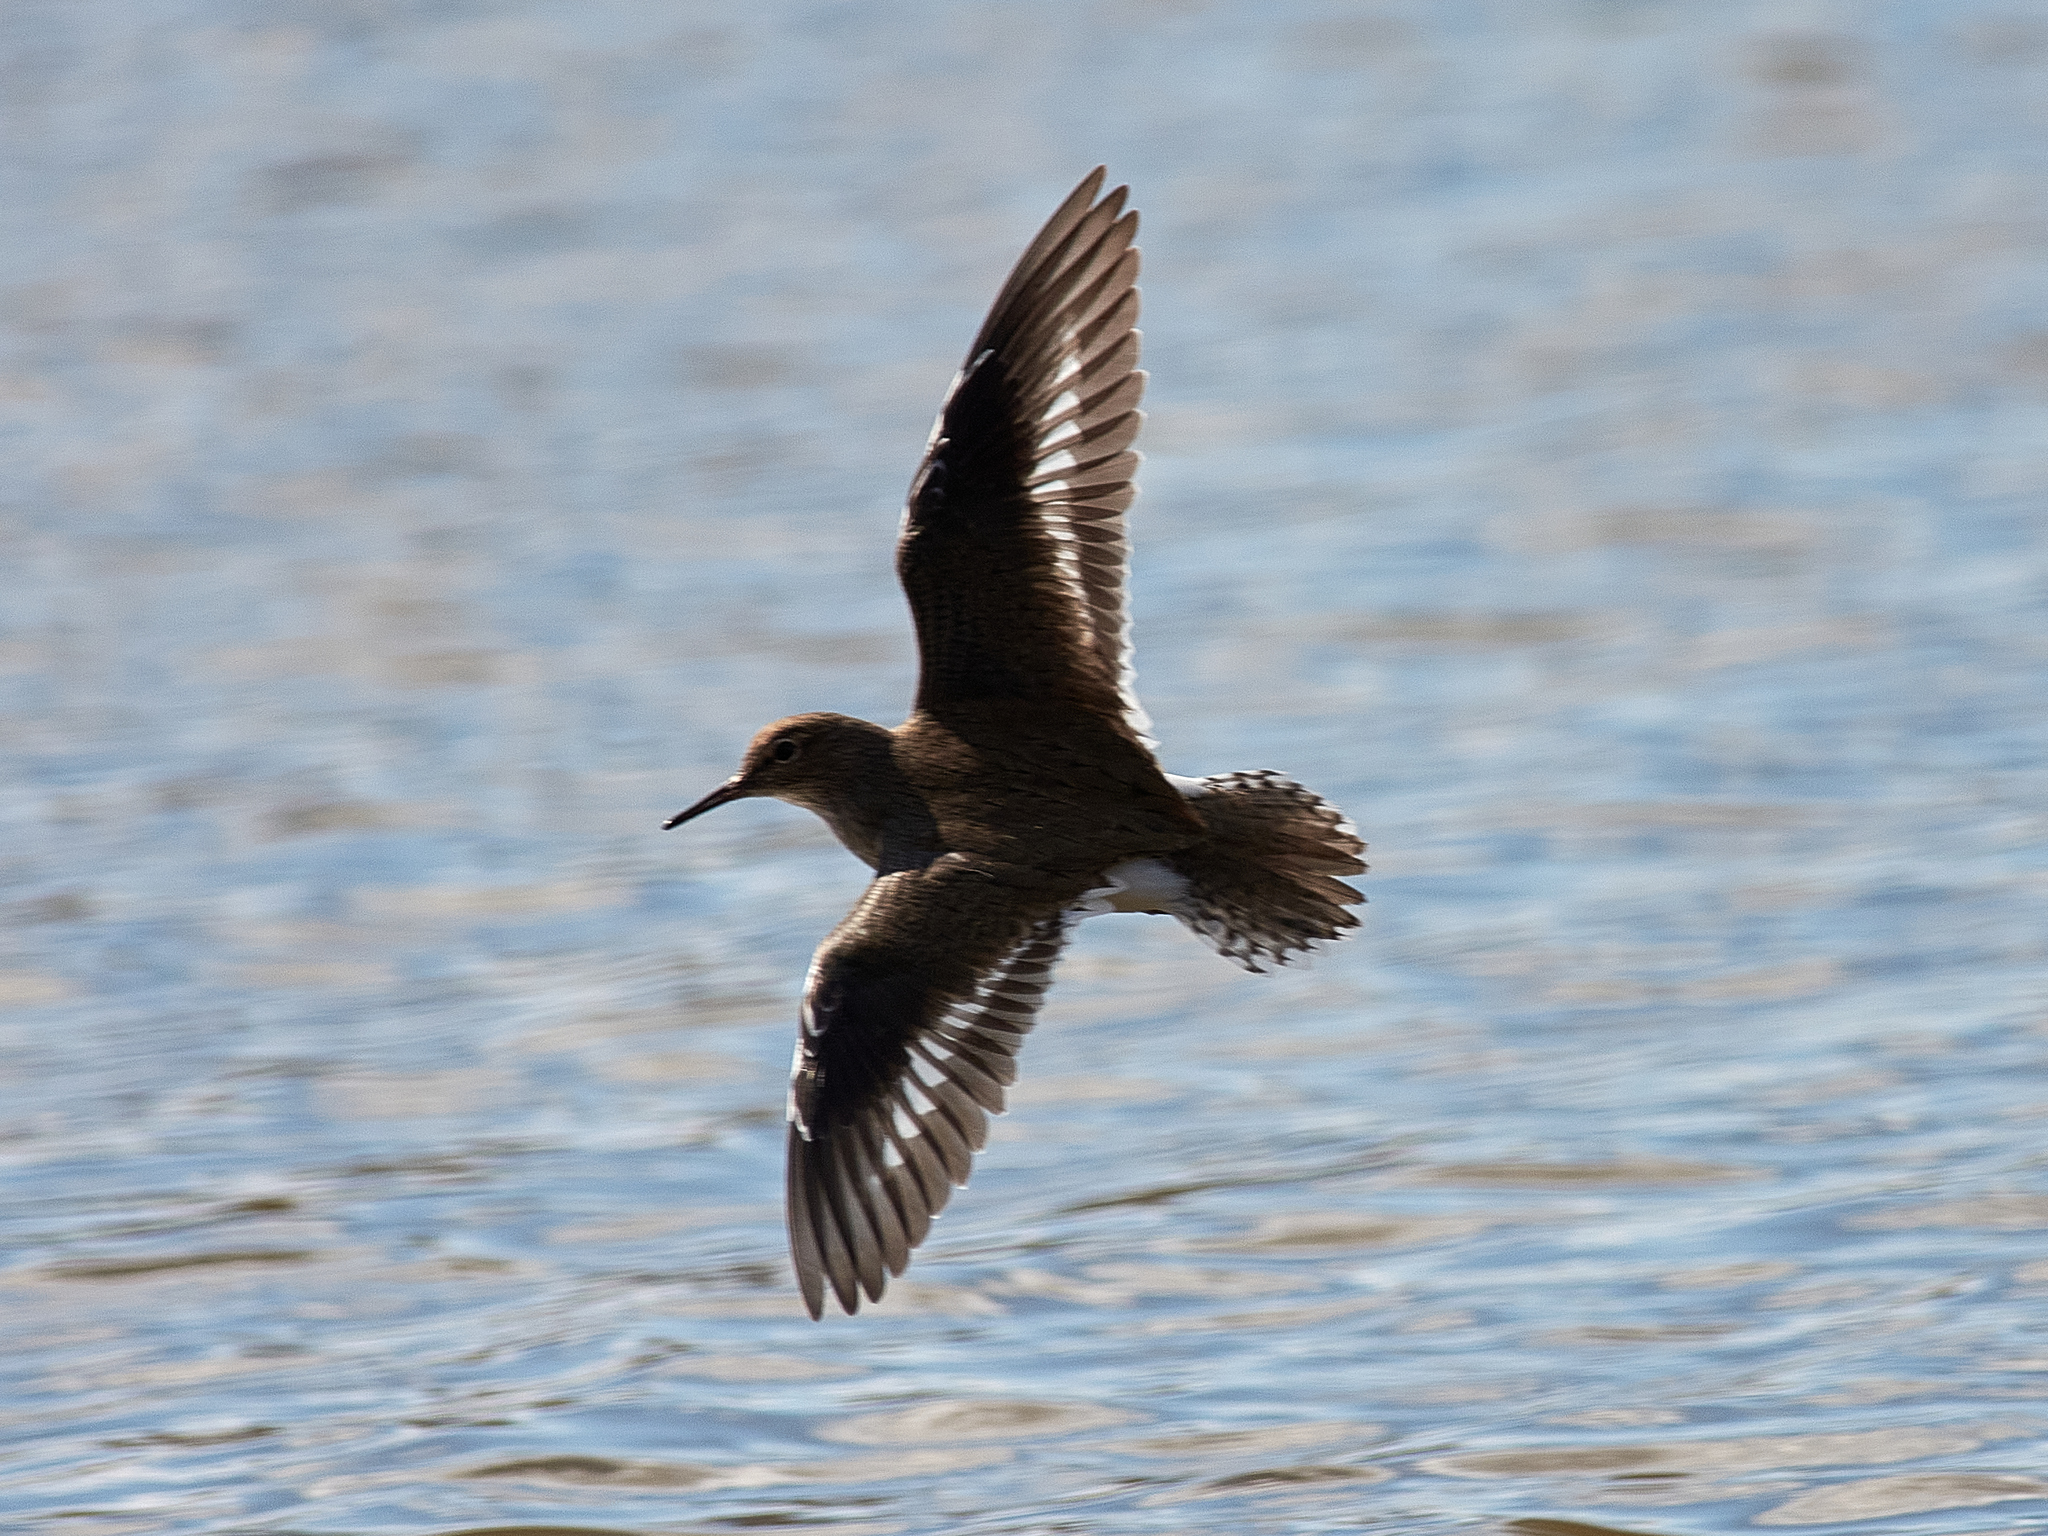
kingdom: Animalia
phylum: Chordata
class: Aves
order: Charadriiformes
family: Scolopacidae
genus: Actitis
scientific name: Actitis hypoleucos
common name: Common sandpiper
